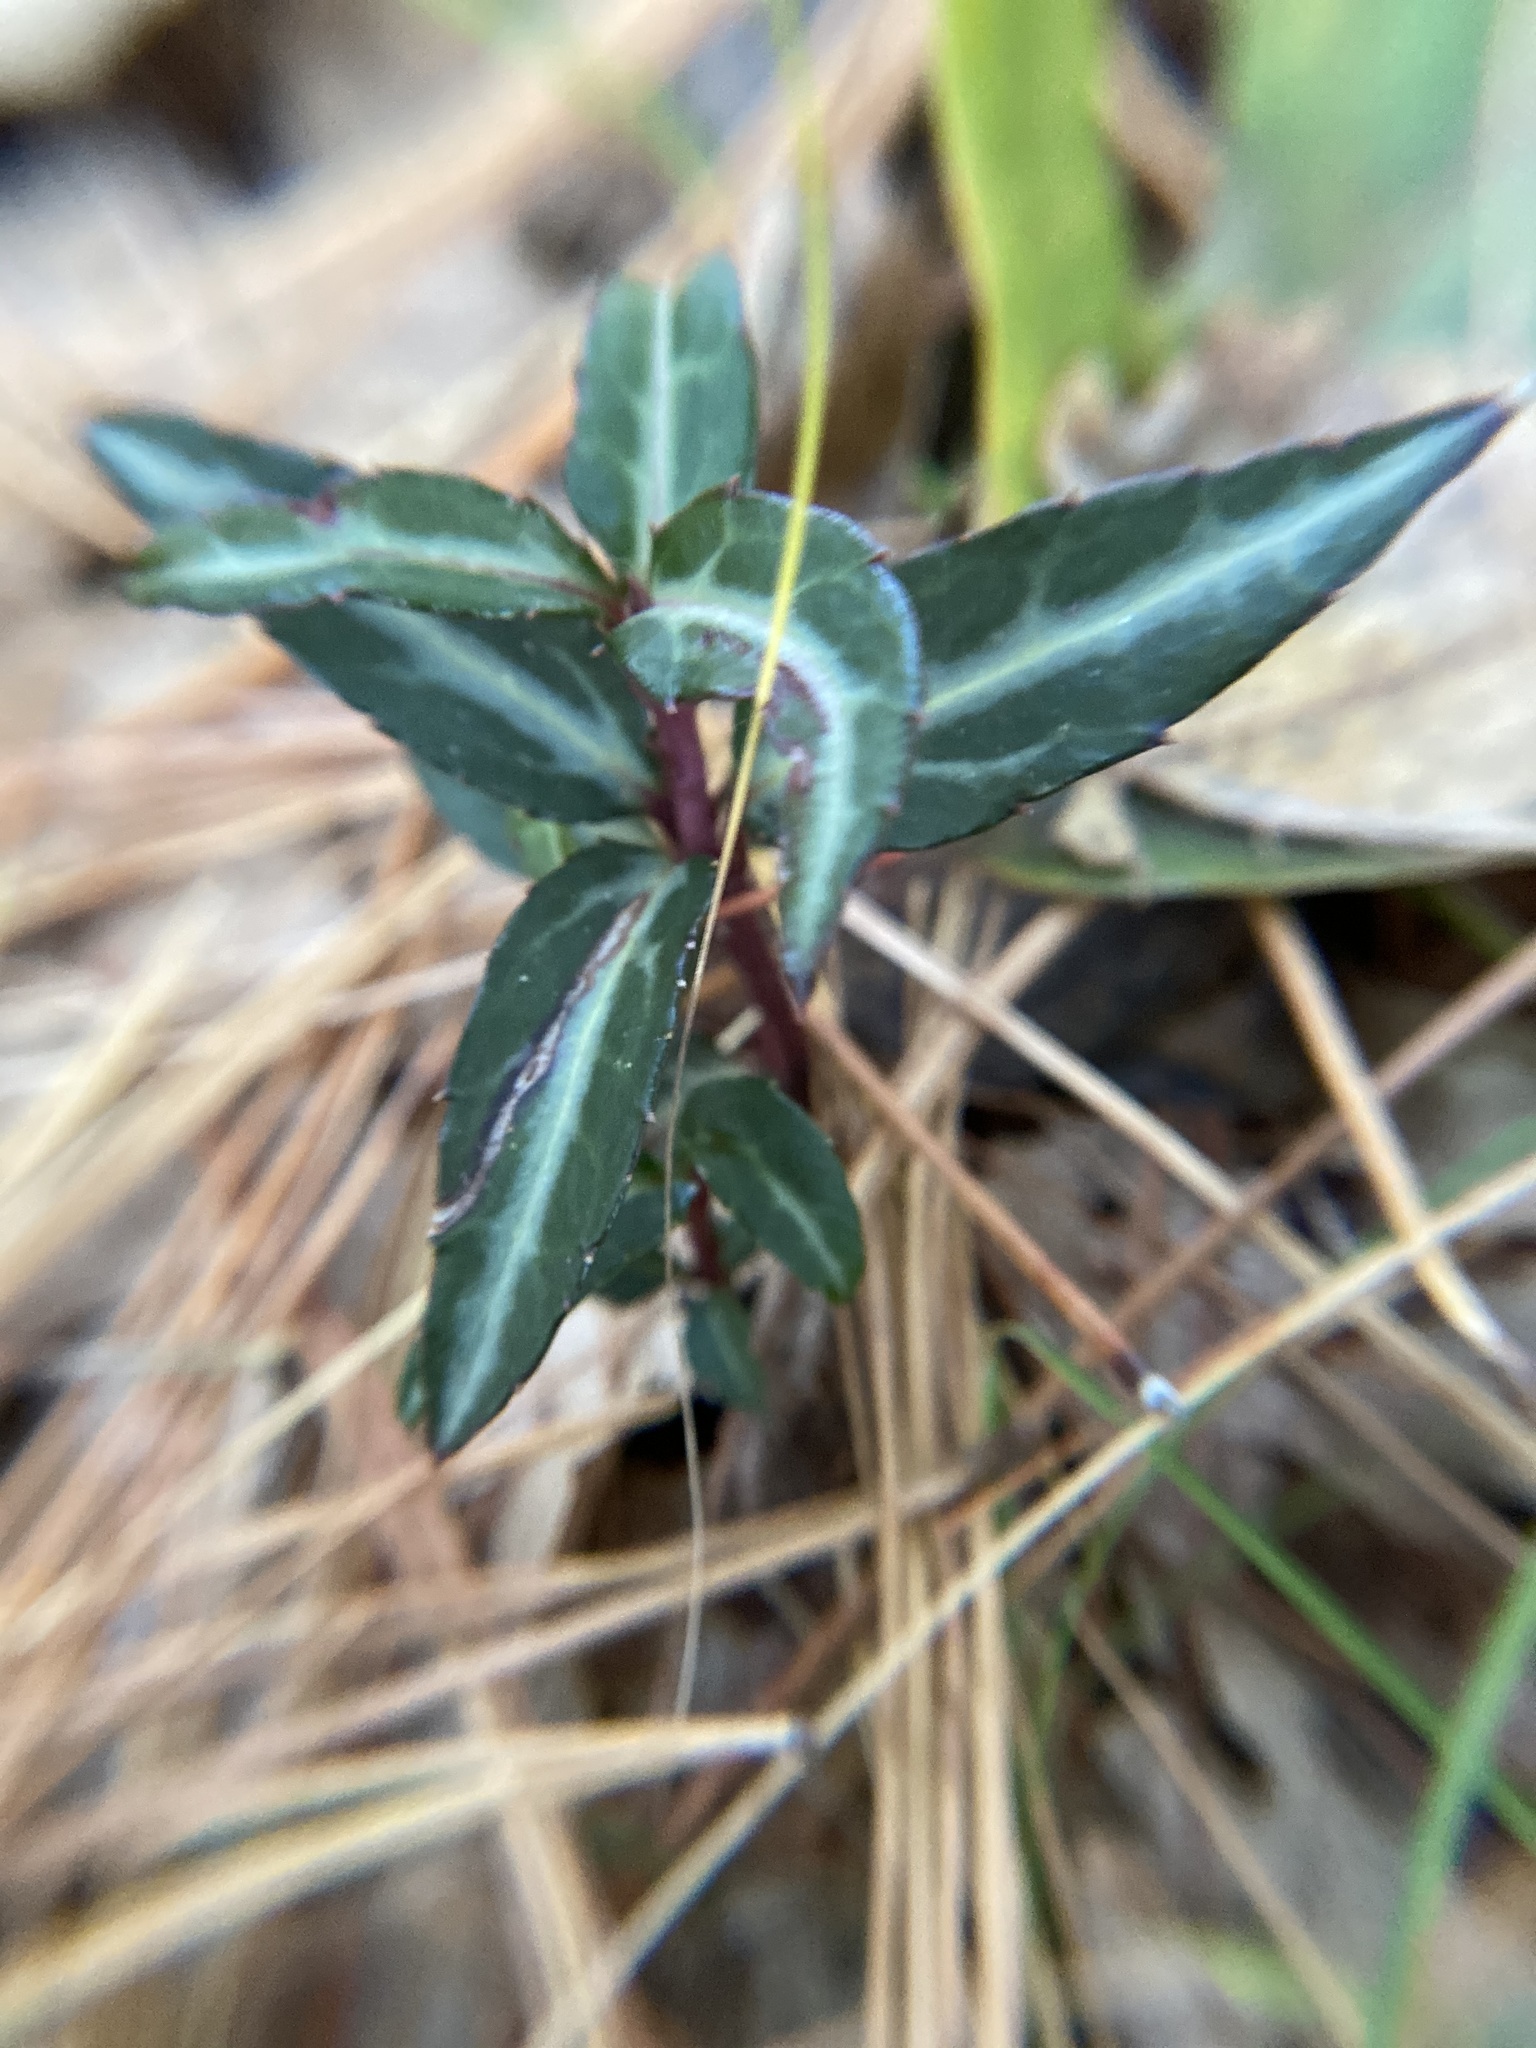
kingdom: Plantae
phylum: Tracheophyta
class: Magnoliopsida
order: Ericales
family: Ericaceae
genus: Chimaphila
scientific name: Chimaphila maculata
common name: Spotted pipsissewa
